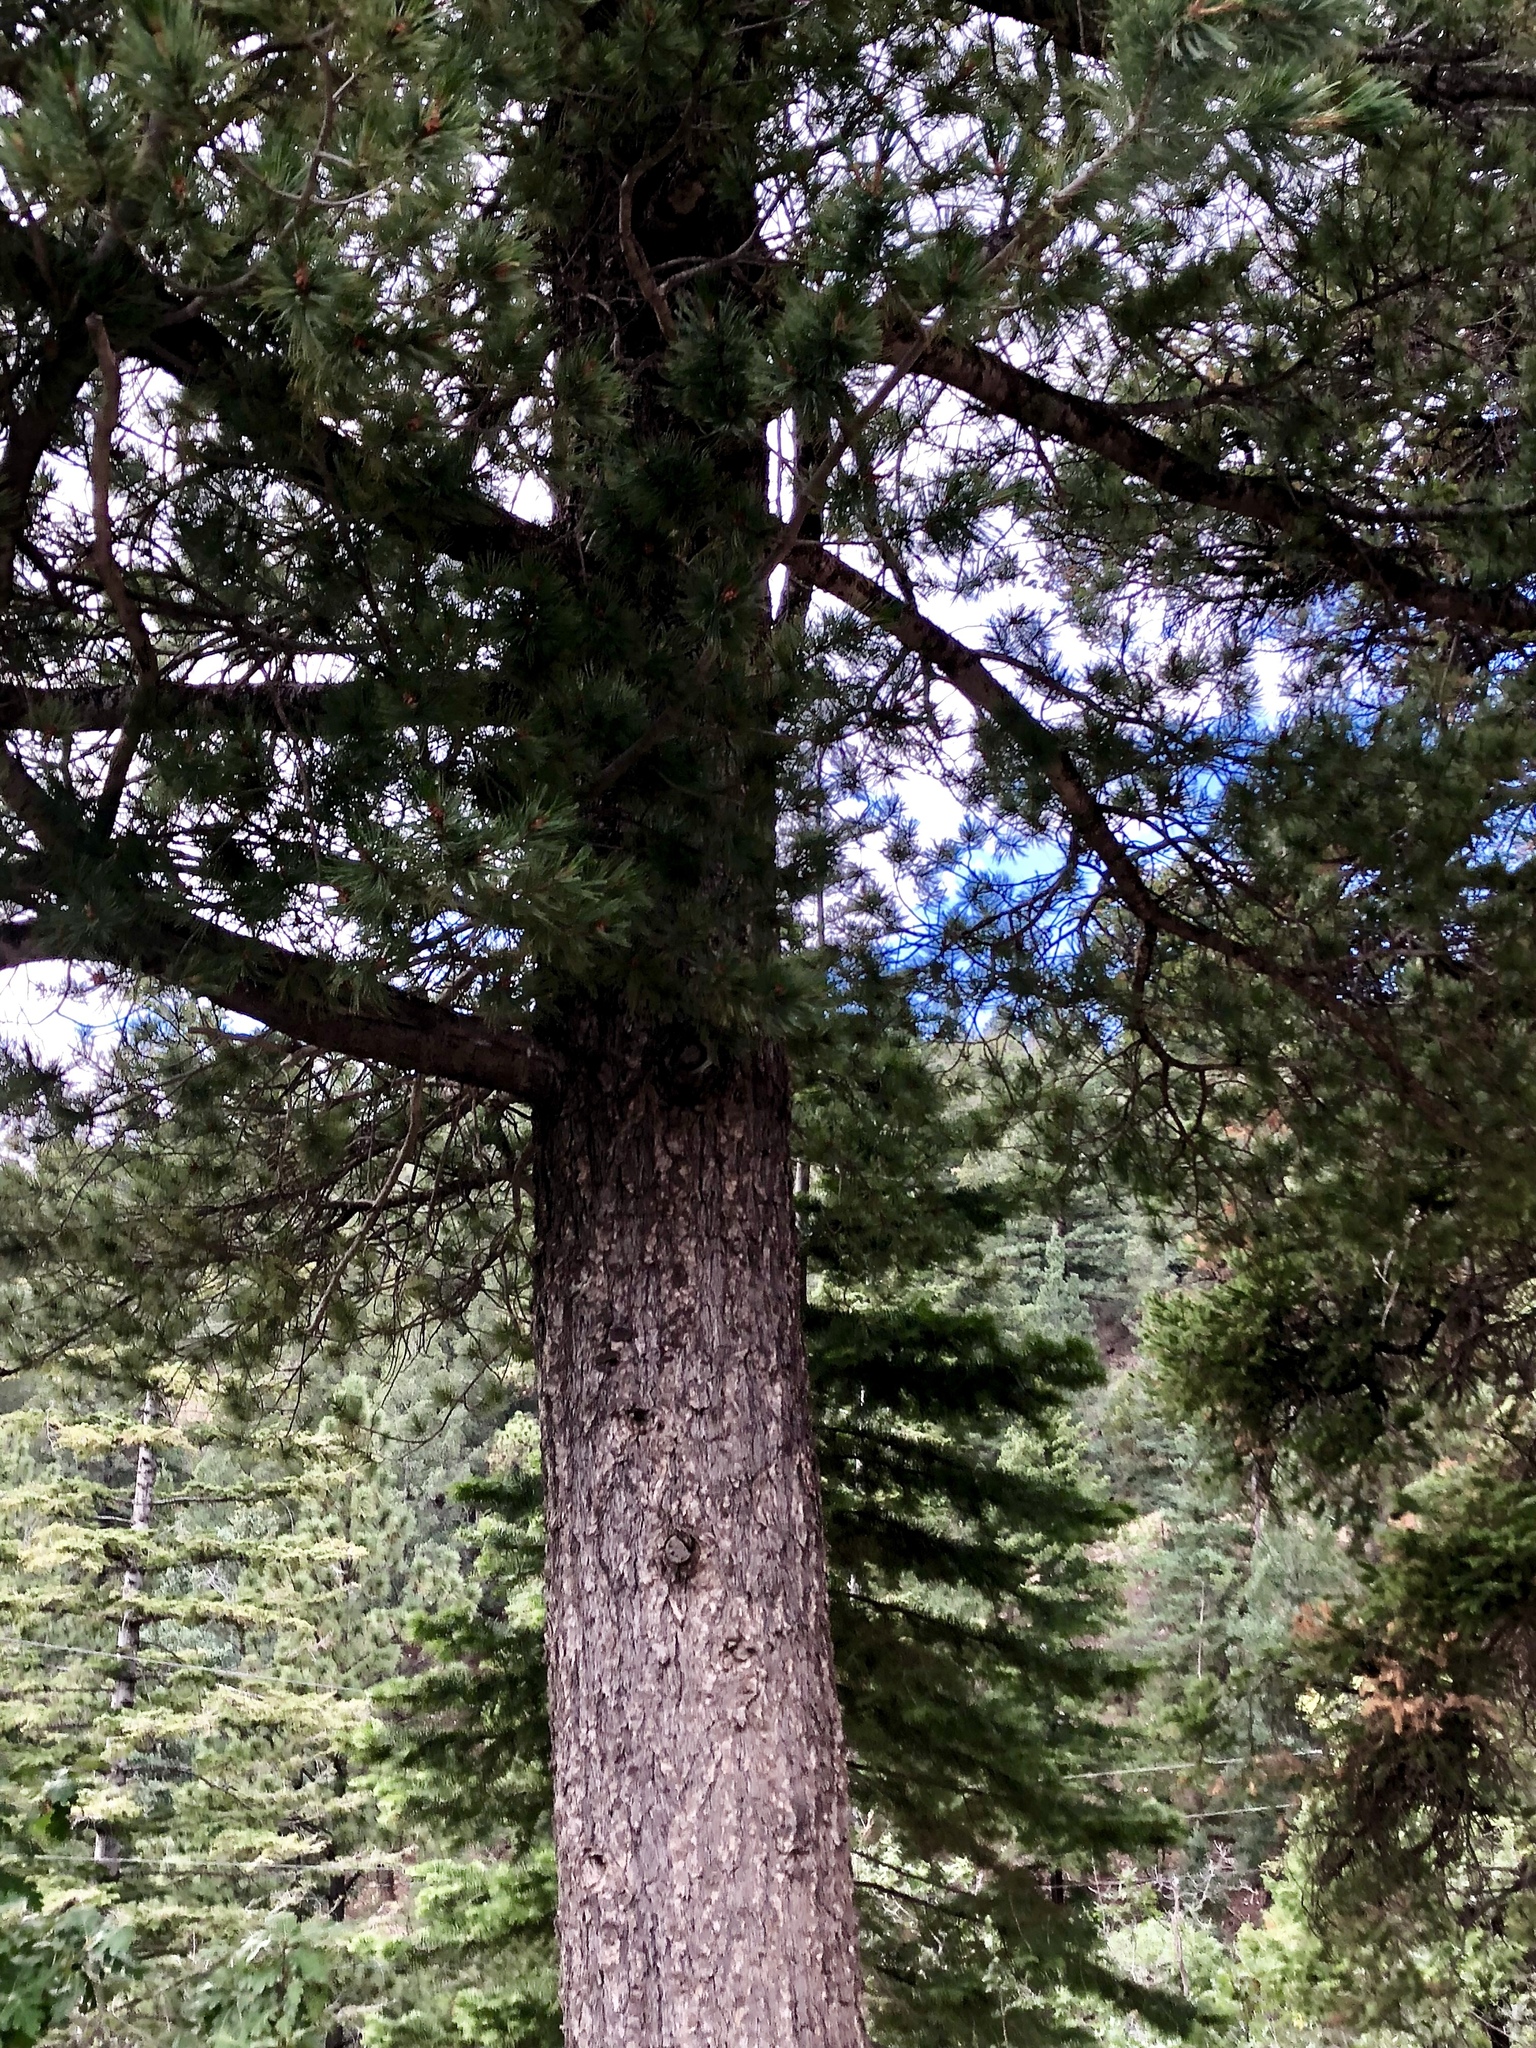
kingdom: Plantae
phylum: Tracheophyta
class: Pinopsida
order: Pinales
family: Pinaceae
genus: Pinus
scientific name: Pinus strobiformis
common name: Southwestern white pine
